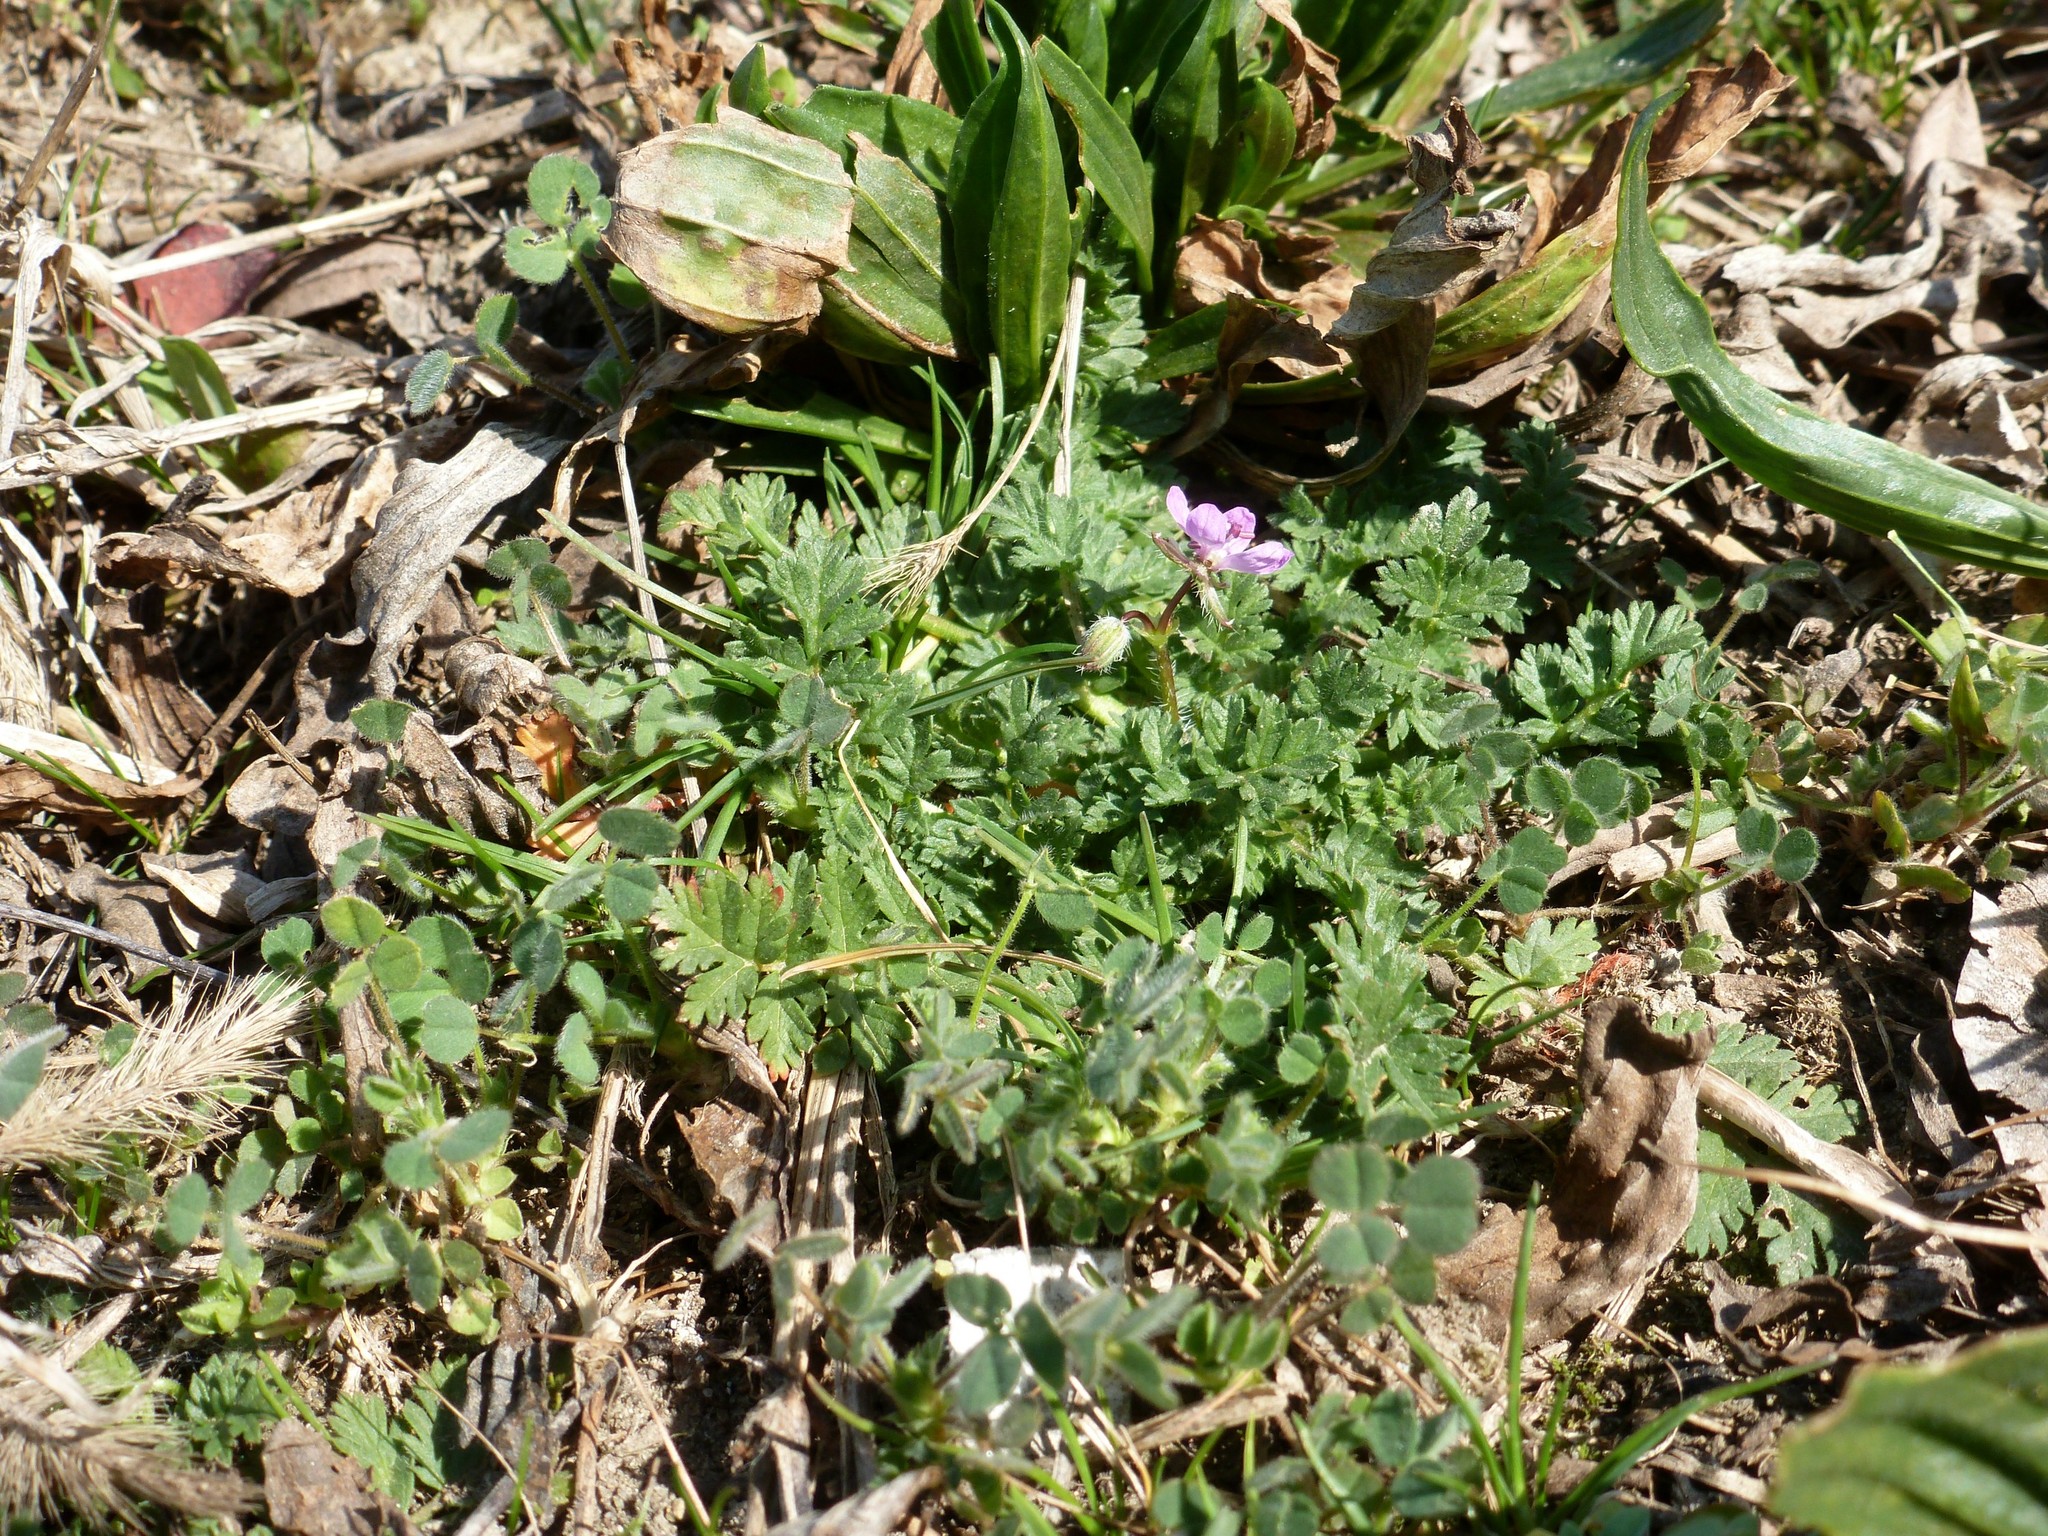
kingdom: Plantae
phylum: Tracheophyta
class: Magnoliopsida
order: Geraniales
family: Geraniaceae
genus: Erodium
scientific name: Erodium cicutarium
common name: Common stork's-bill
